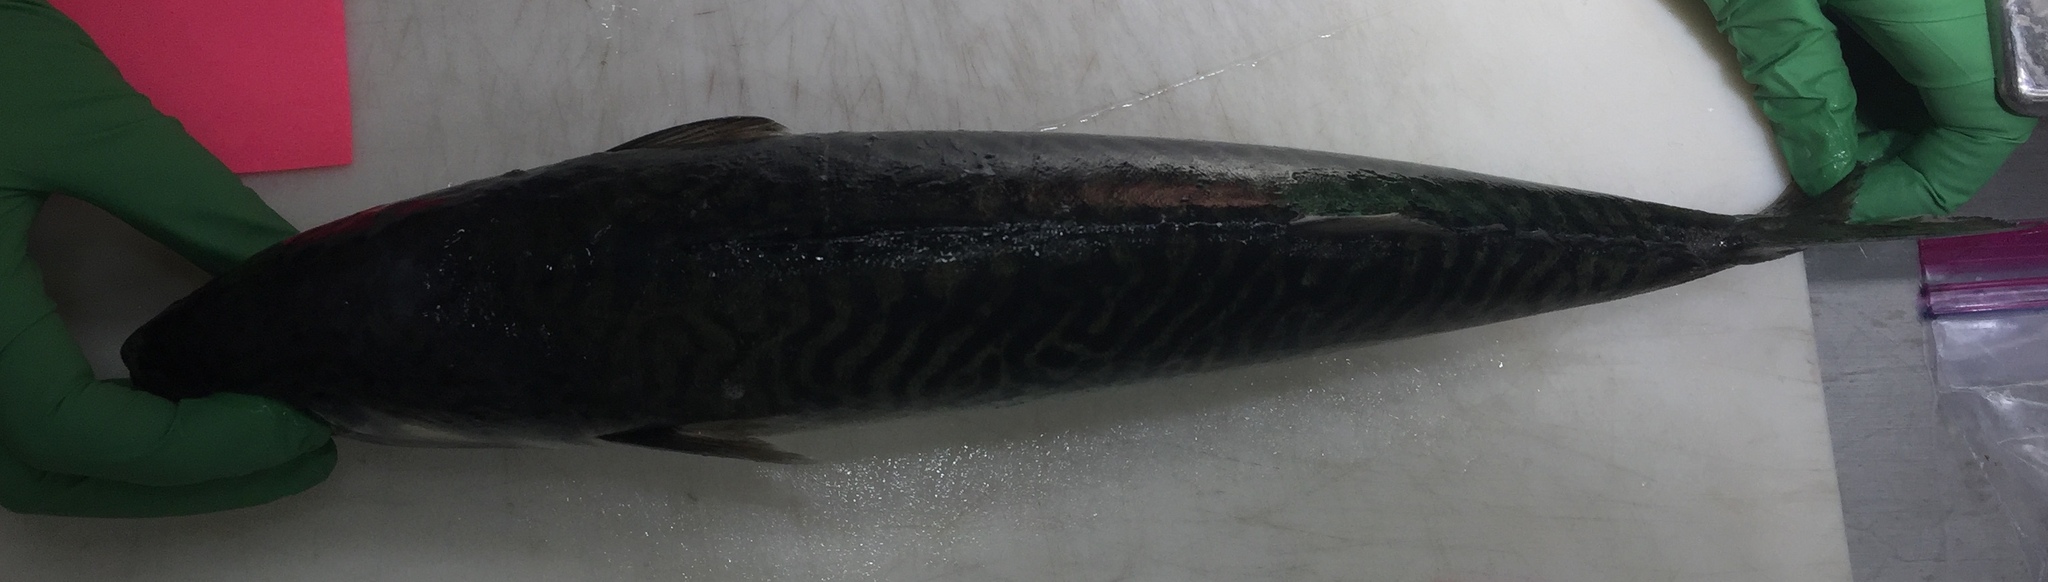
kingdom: Animalia
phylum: Chordata
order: Perciformes
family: Scombridae
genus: Scomber
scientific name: Scomber japonicus
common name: Chub mackerel
